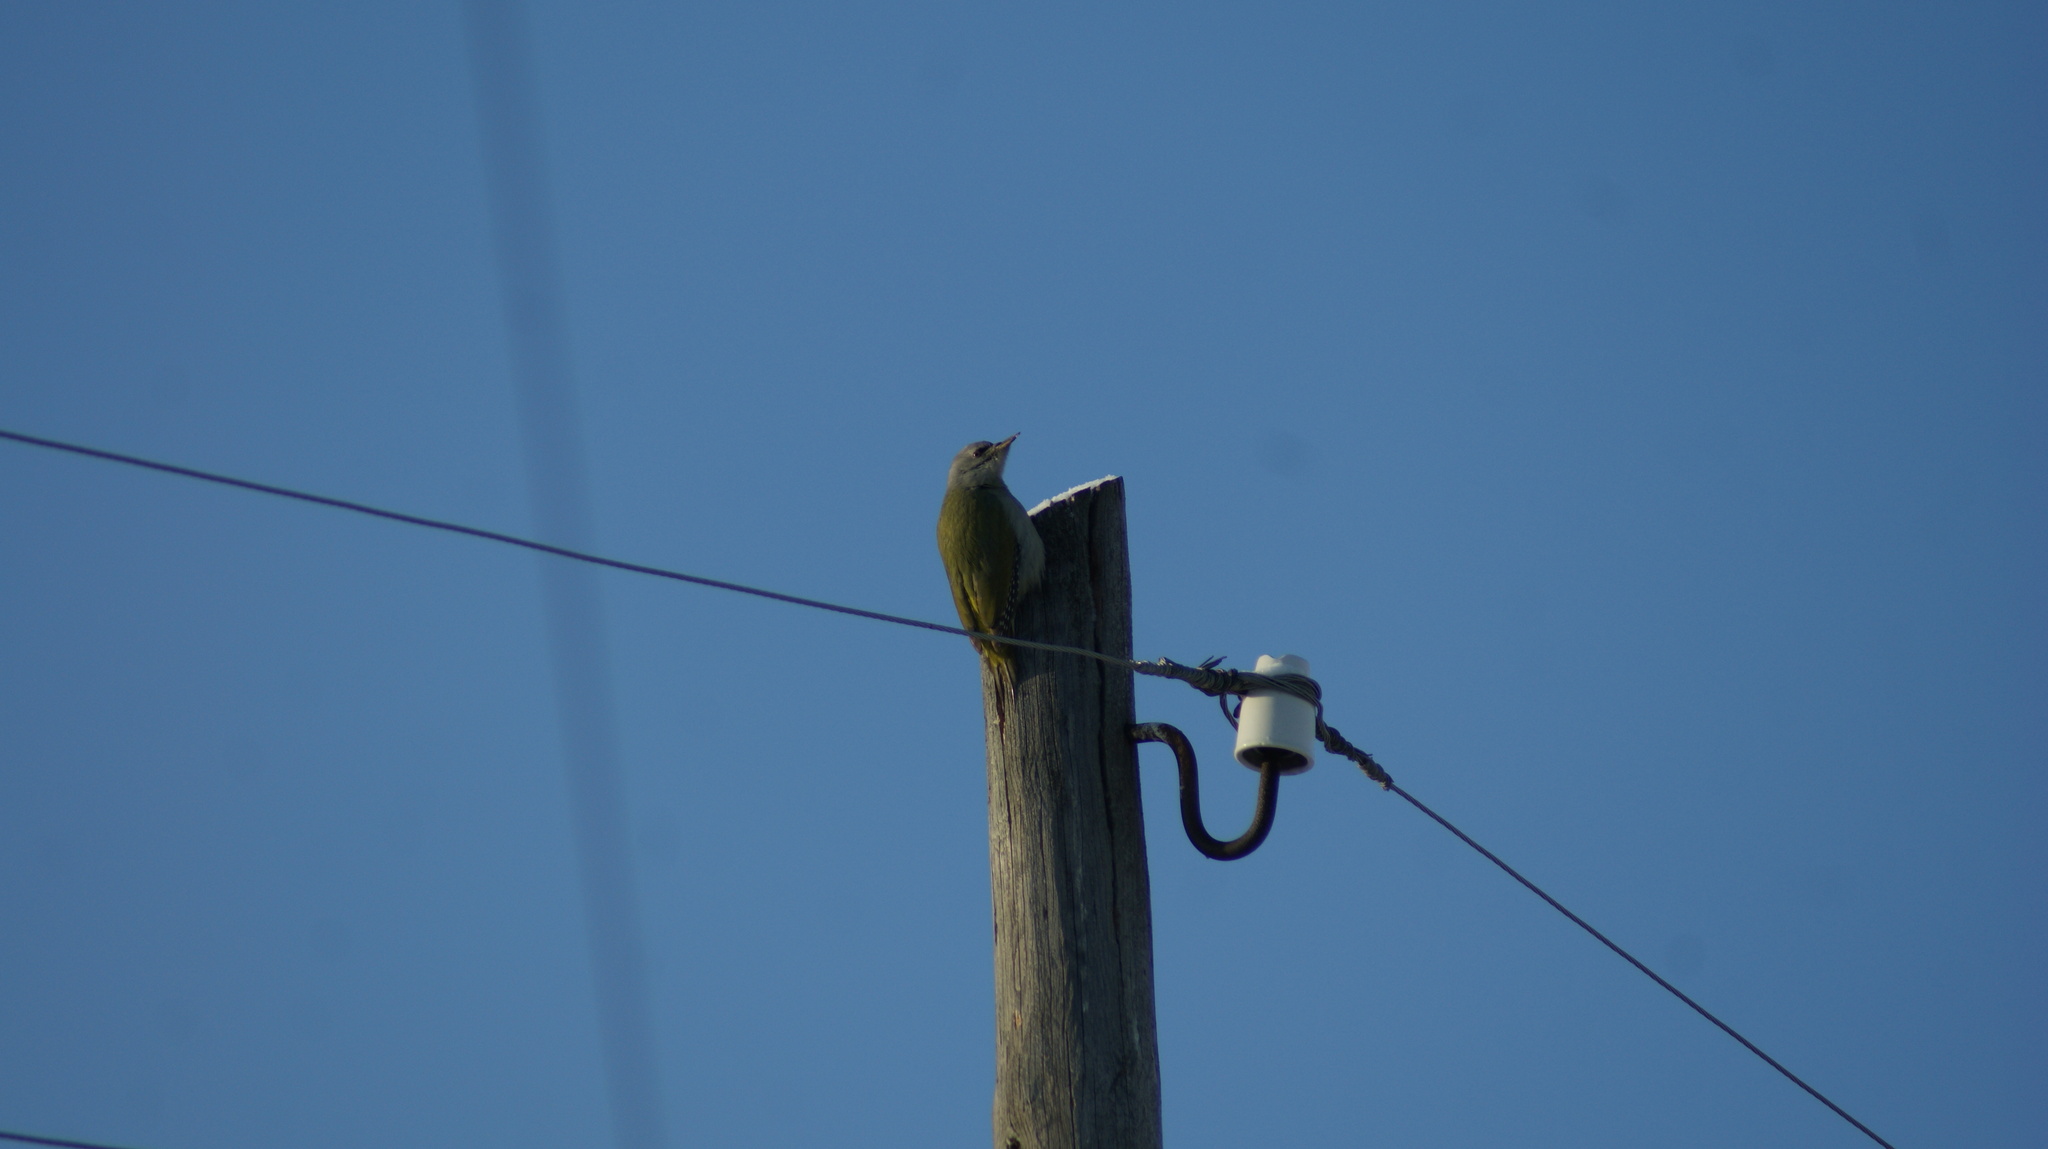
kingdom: Animalia
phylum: Chordata
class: Aves
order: Piciformes
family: Picidae
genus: Picus
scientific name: Picus canus
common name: Grey-headed woodpecker
